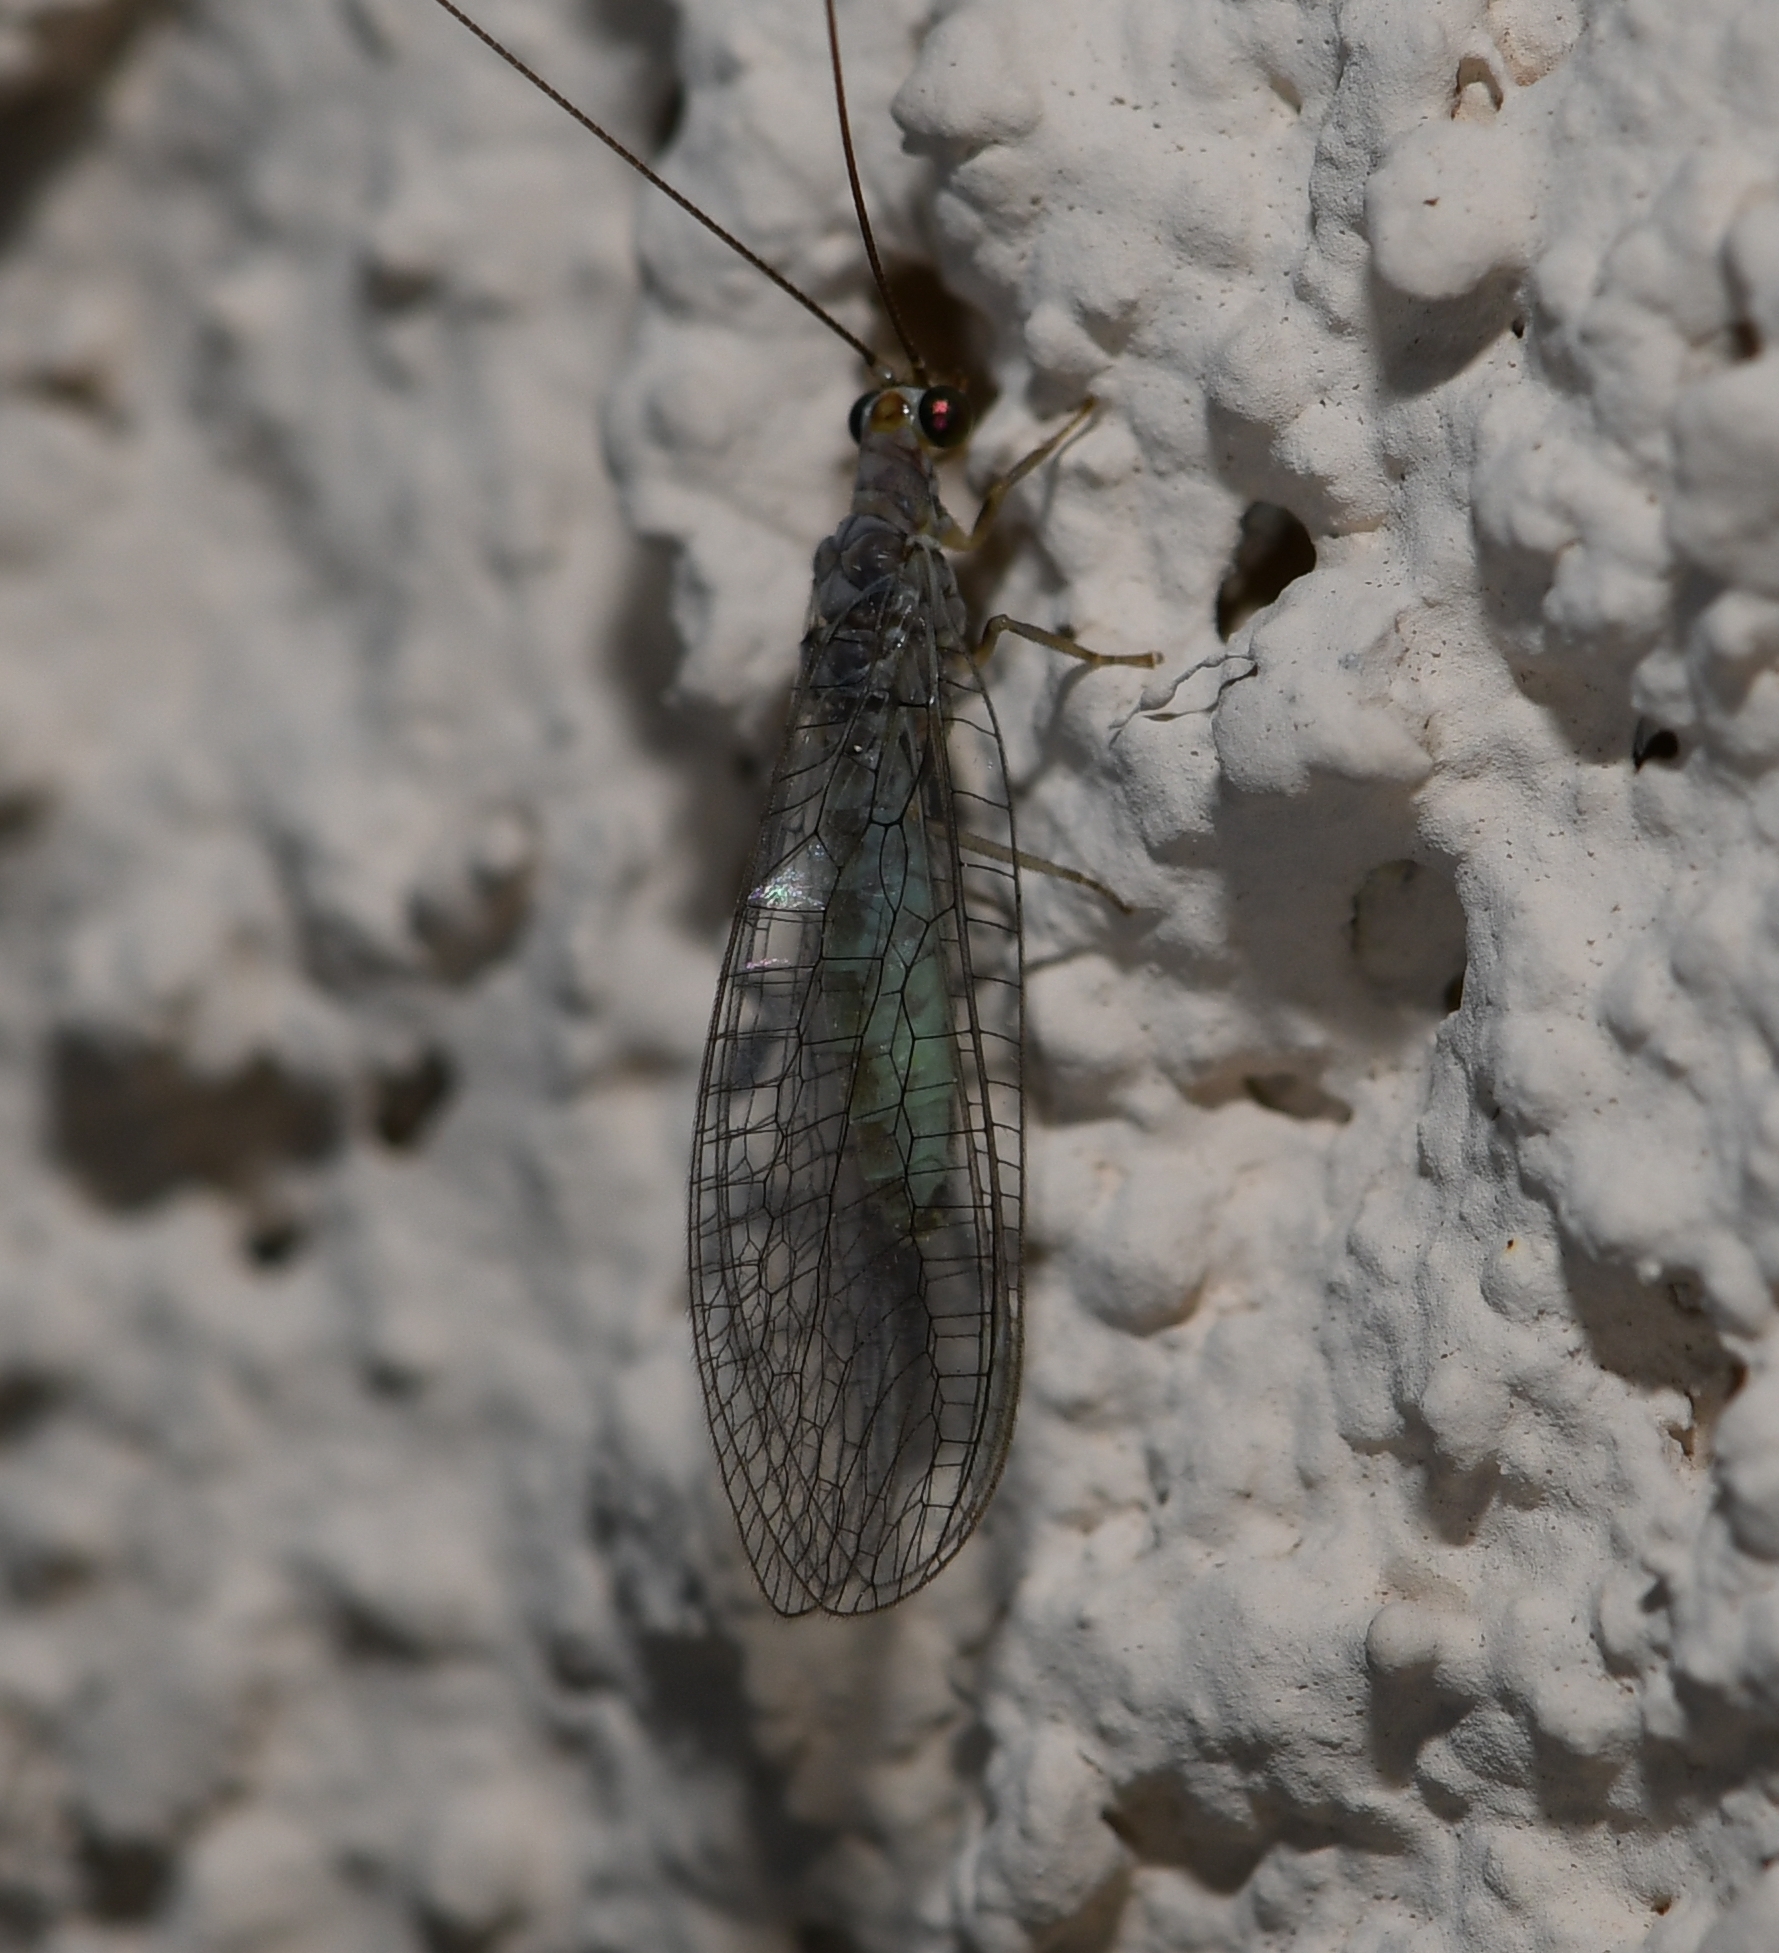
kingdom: Animalia
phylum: Arthropoda
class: Insecta
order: Neuroptera
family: Chrysopidae
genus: Yumachrysa
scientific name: Yumachrysa apache
